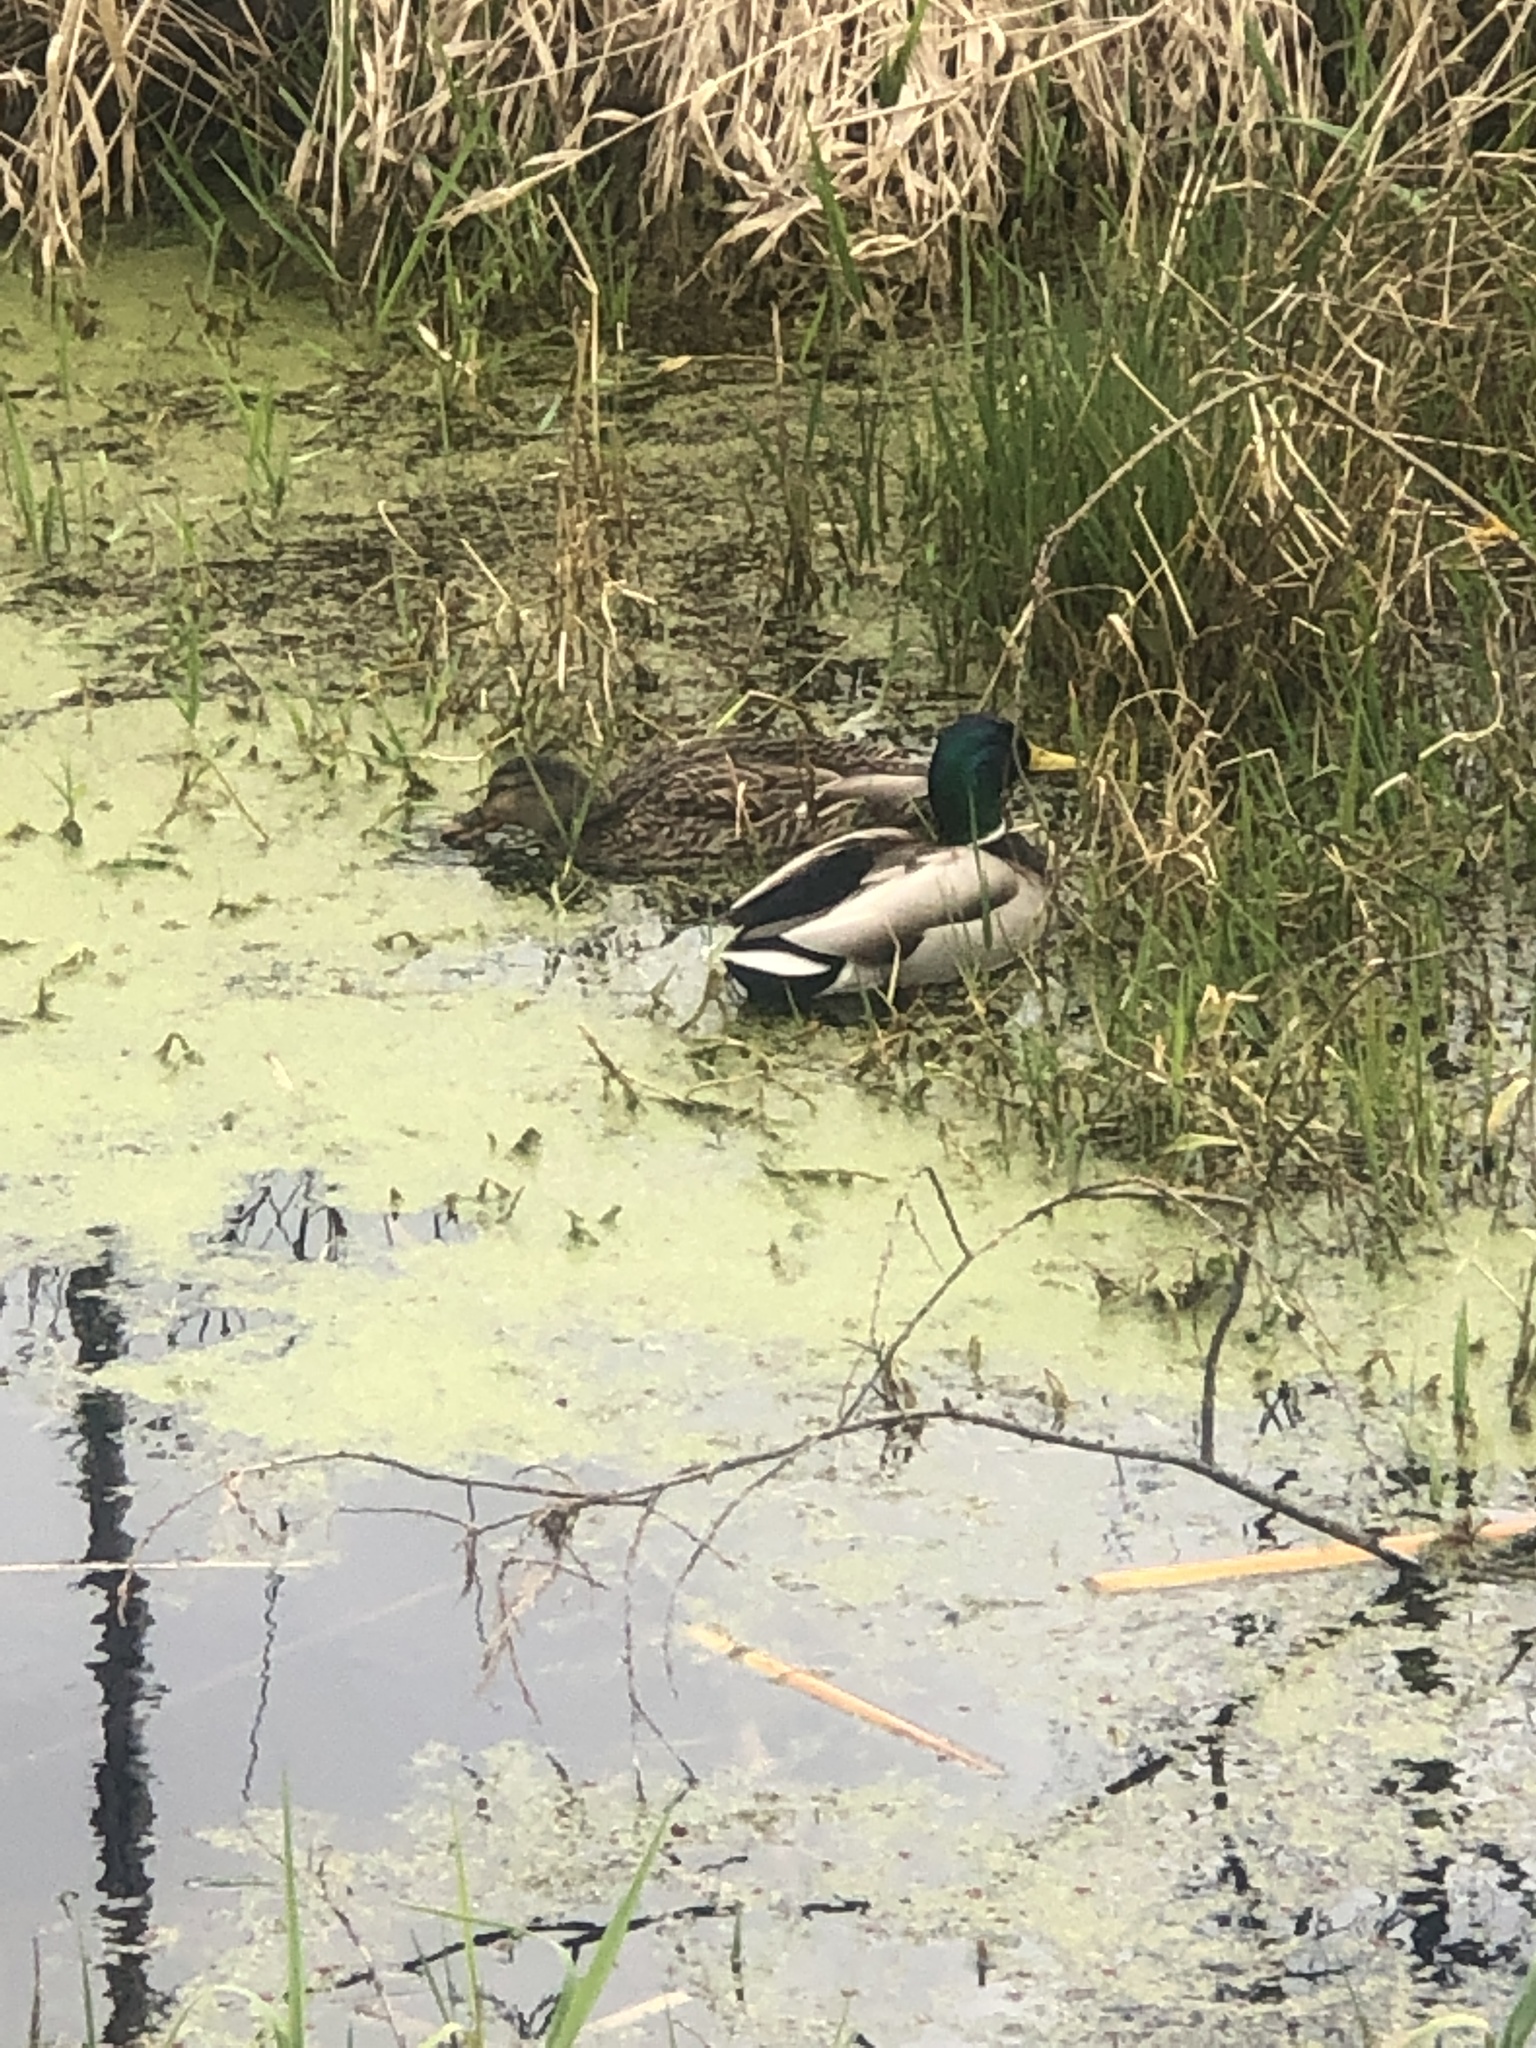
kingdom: Animalia
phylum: Chordata
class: Aves
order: Anseriformes
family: Anatidae
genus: Anas
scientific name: Anas platyrhynchos
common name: Mallard
